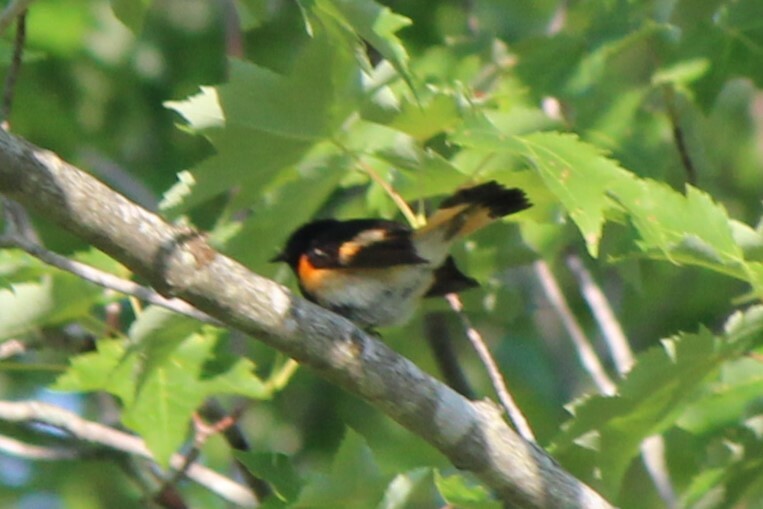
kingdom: Animalia
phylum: Chordata
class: Aves
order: Passeriformes
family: Parulidae
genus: Setophaga
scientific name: Setophaga ruticilla
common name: American redstart
